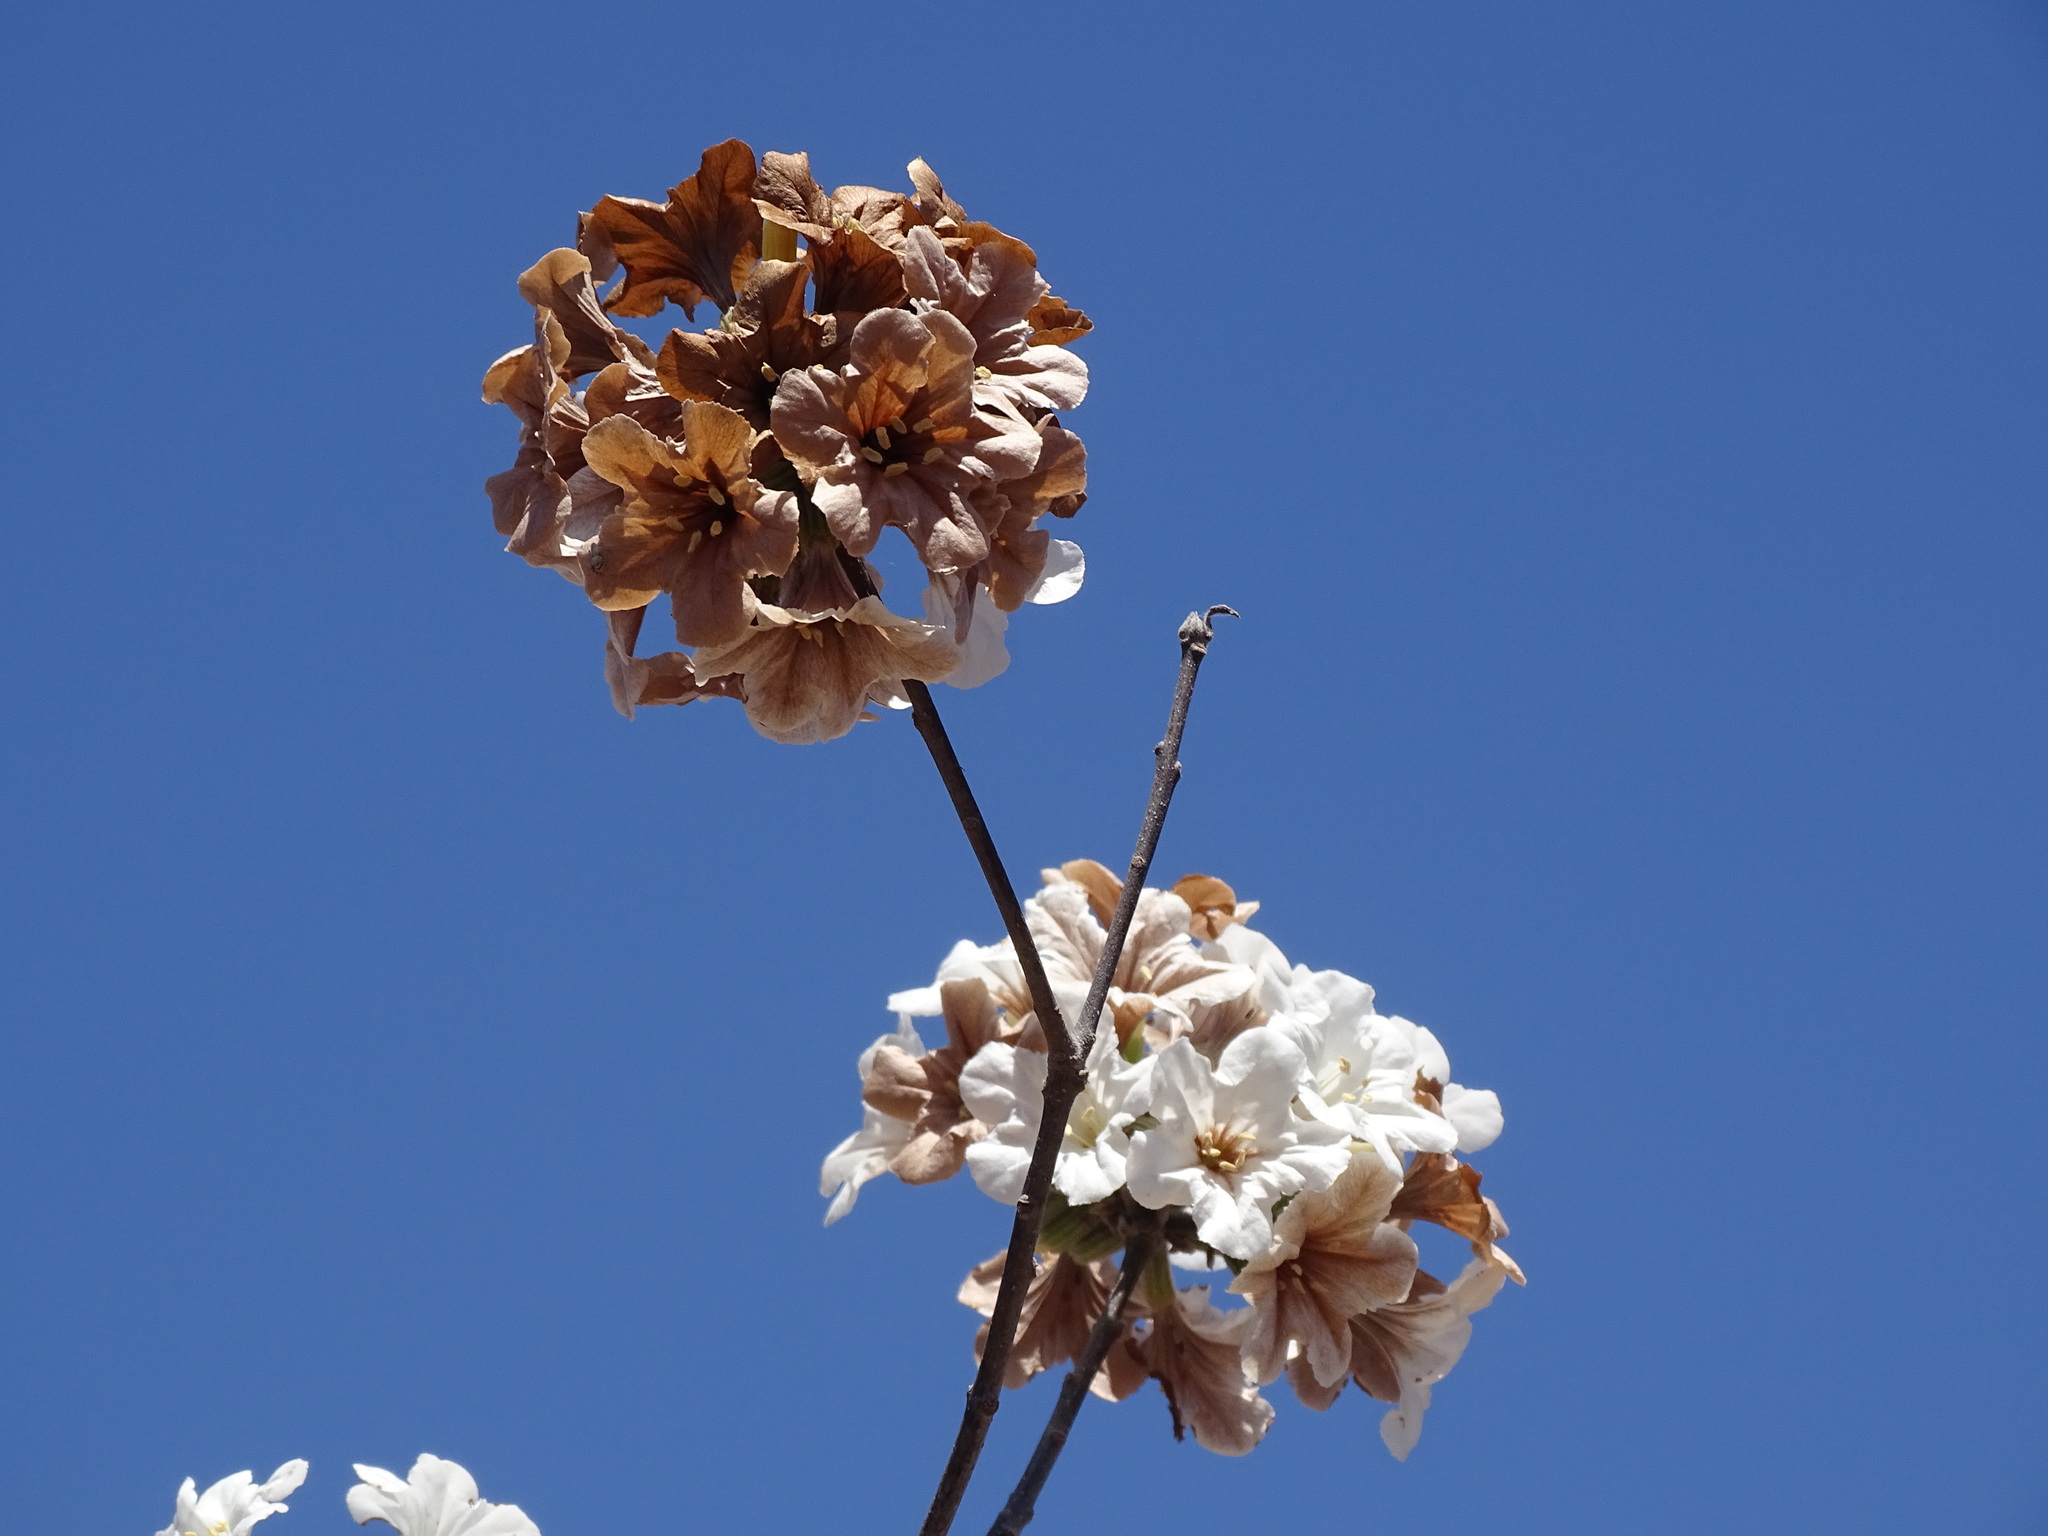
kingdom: Plantae
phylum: Tracheophyta
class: Magnoliopsida
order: Boraginales
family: Cordiaceae
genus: Cordia
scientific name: Cordia sonorae
